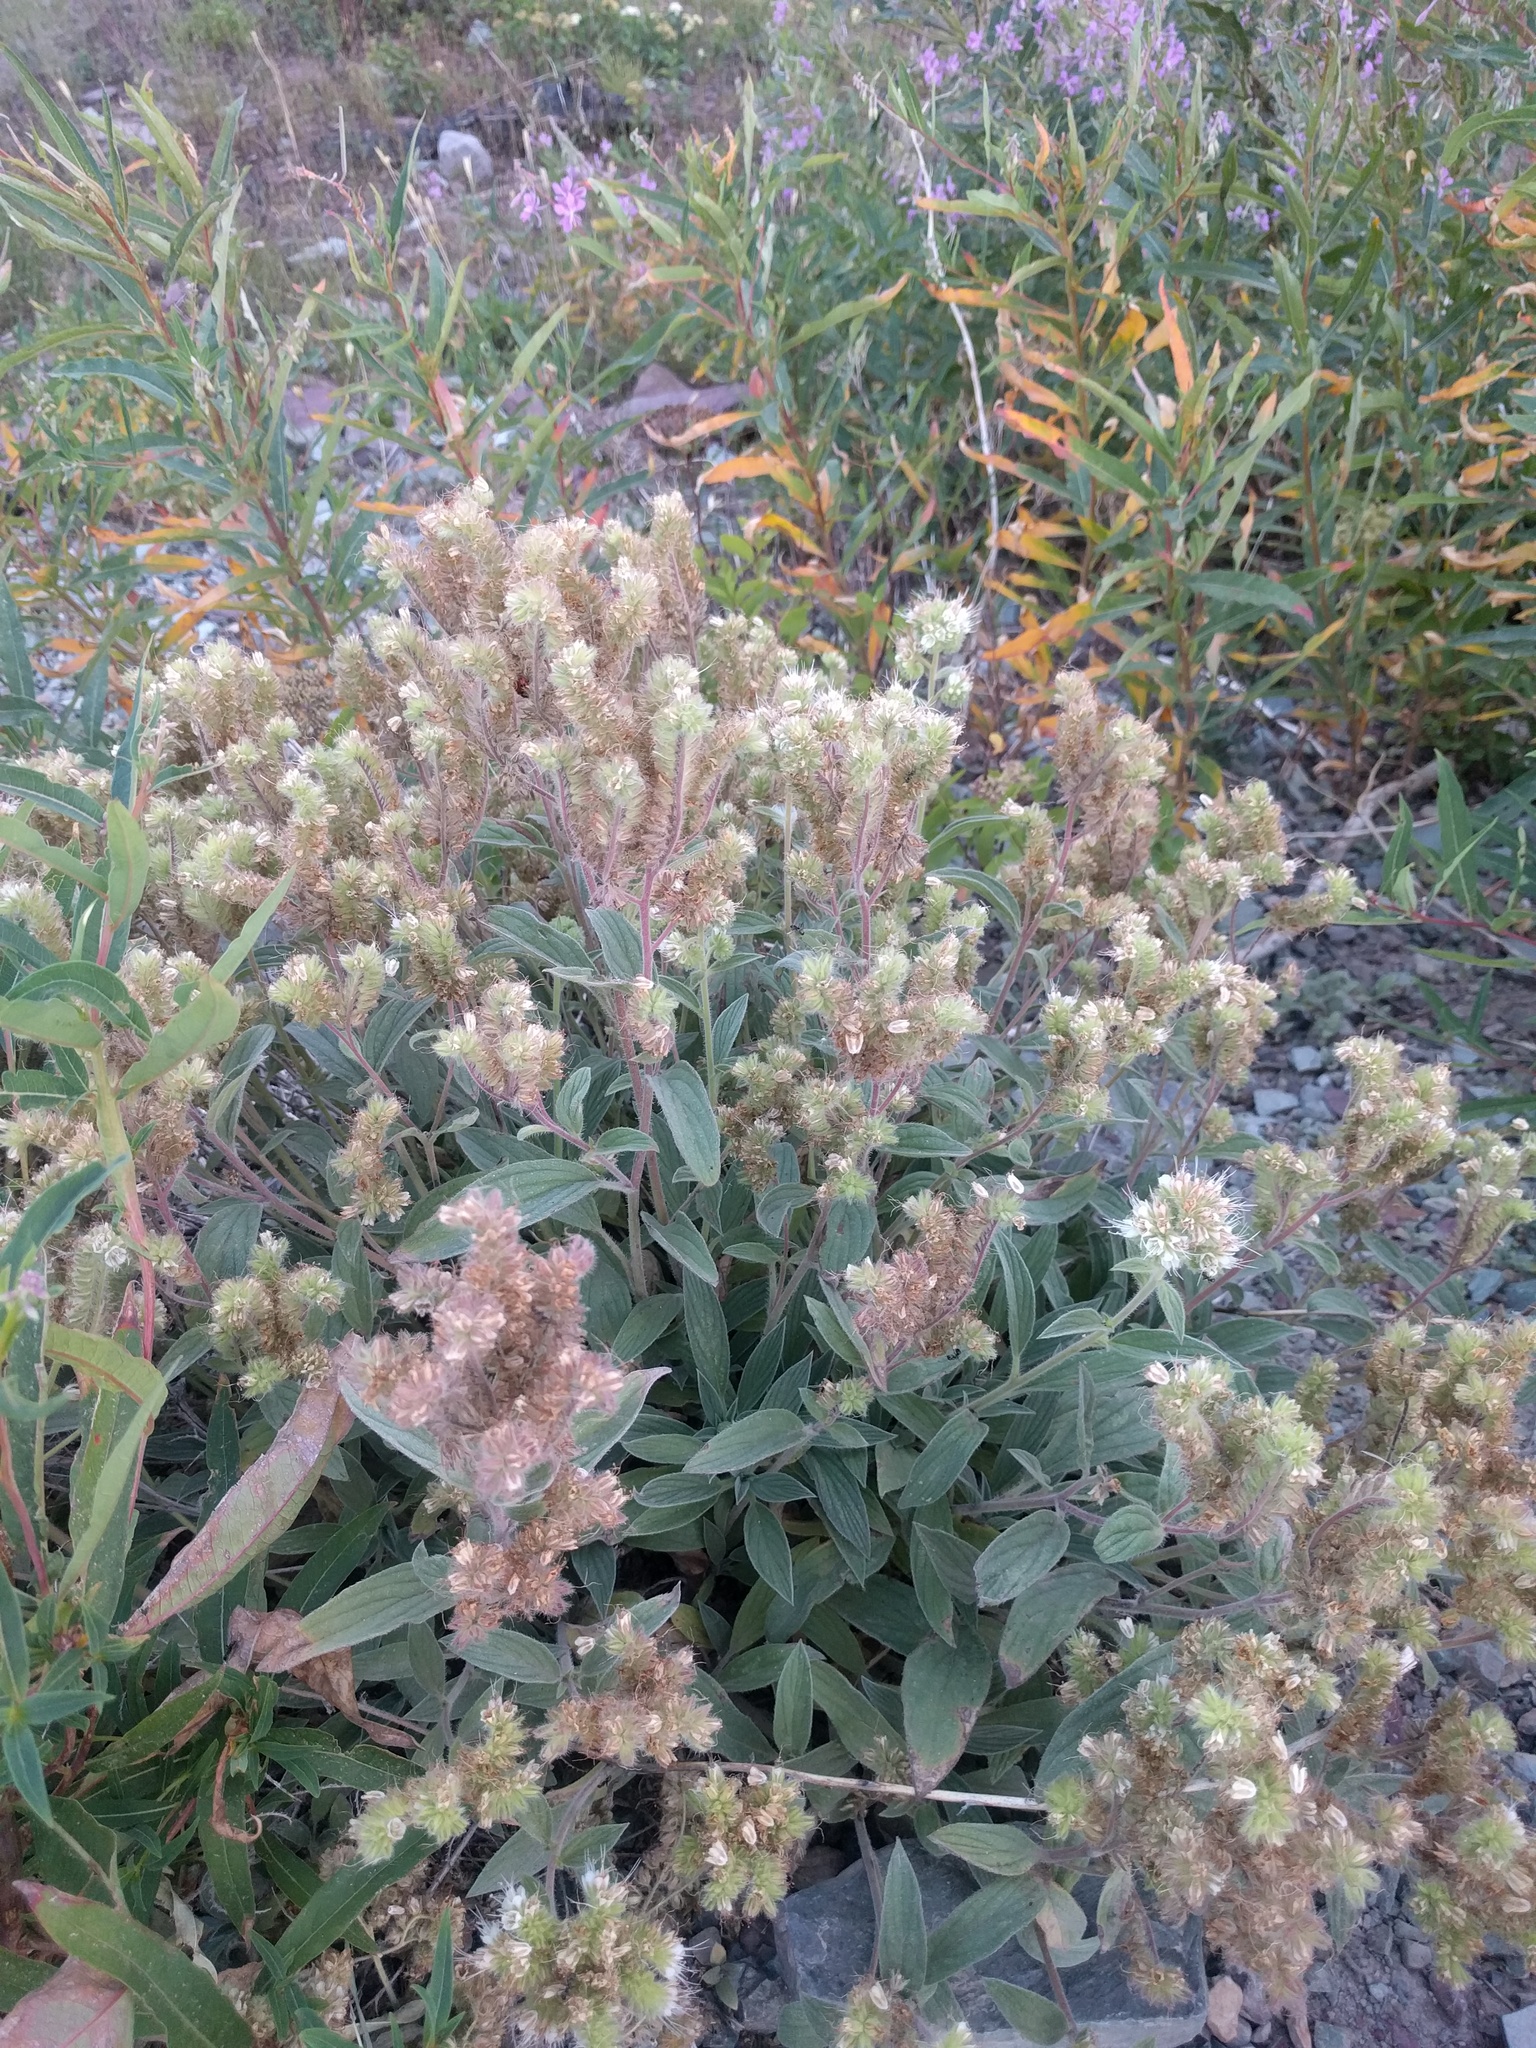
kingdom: Plantae
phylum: Tracheophyta
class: Magnoliopsida
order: Boraginales
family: Hydrophyllaceae
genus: Phacelia
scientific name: Phacelia hastata
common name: Silver-leaved phacelia
